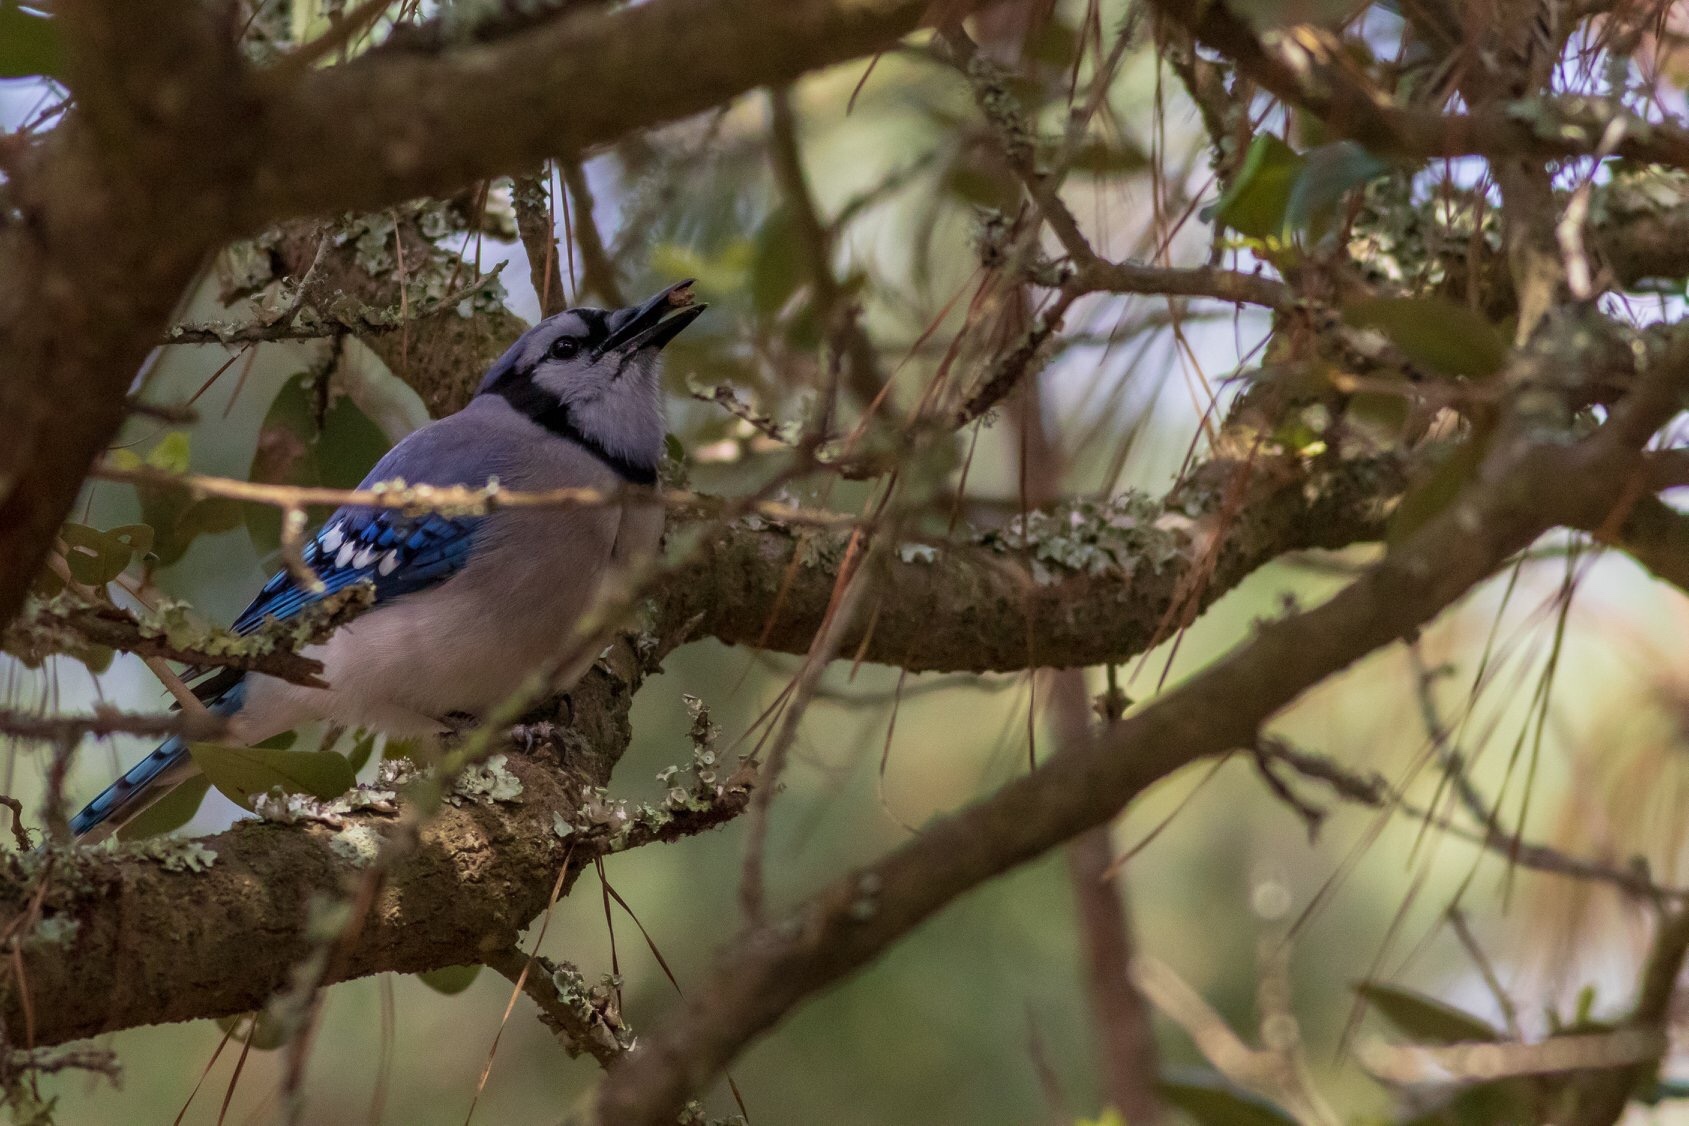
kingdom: Animalia
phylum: Chordata
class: Aves
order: Passeriformes
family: Corvidae
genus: Cyanocitta
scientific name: Cyanocitta cristata
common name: Blue jay
